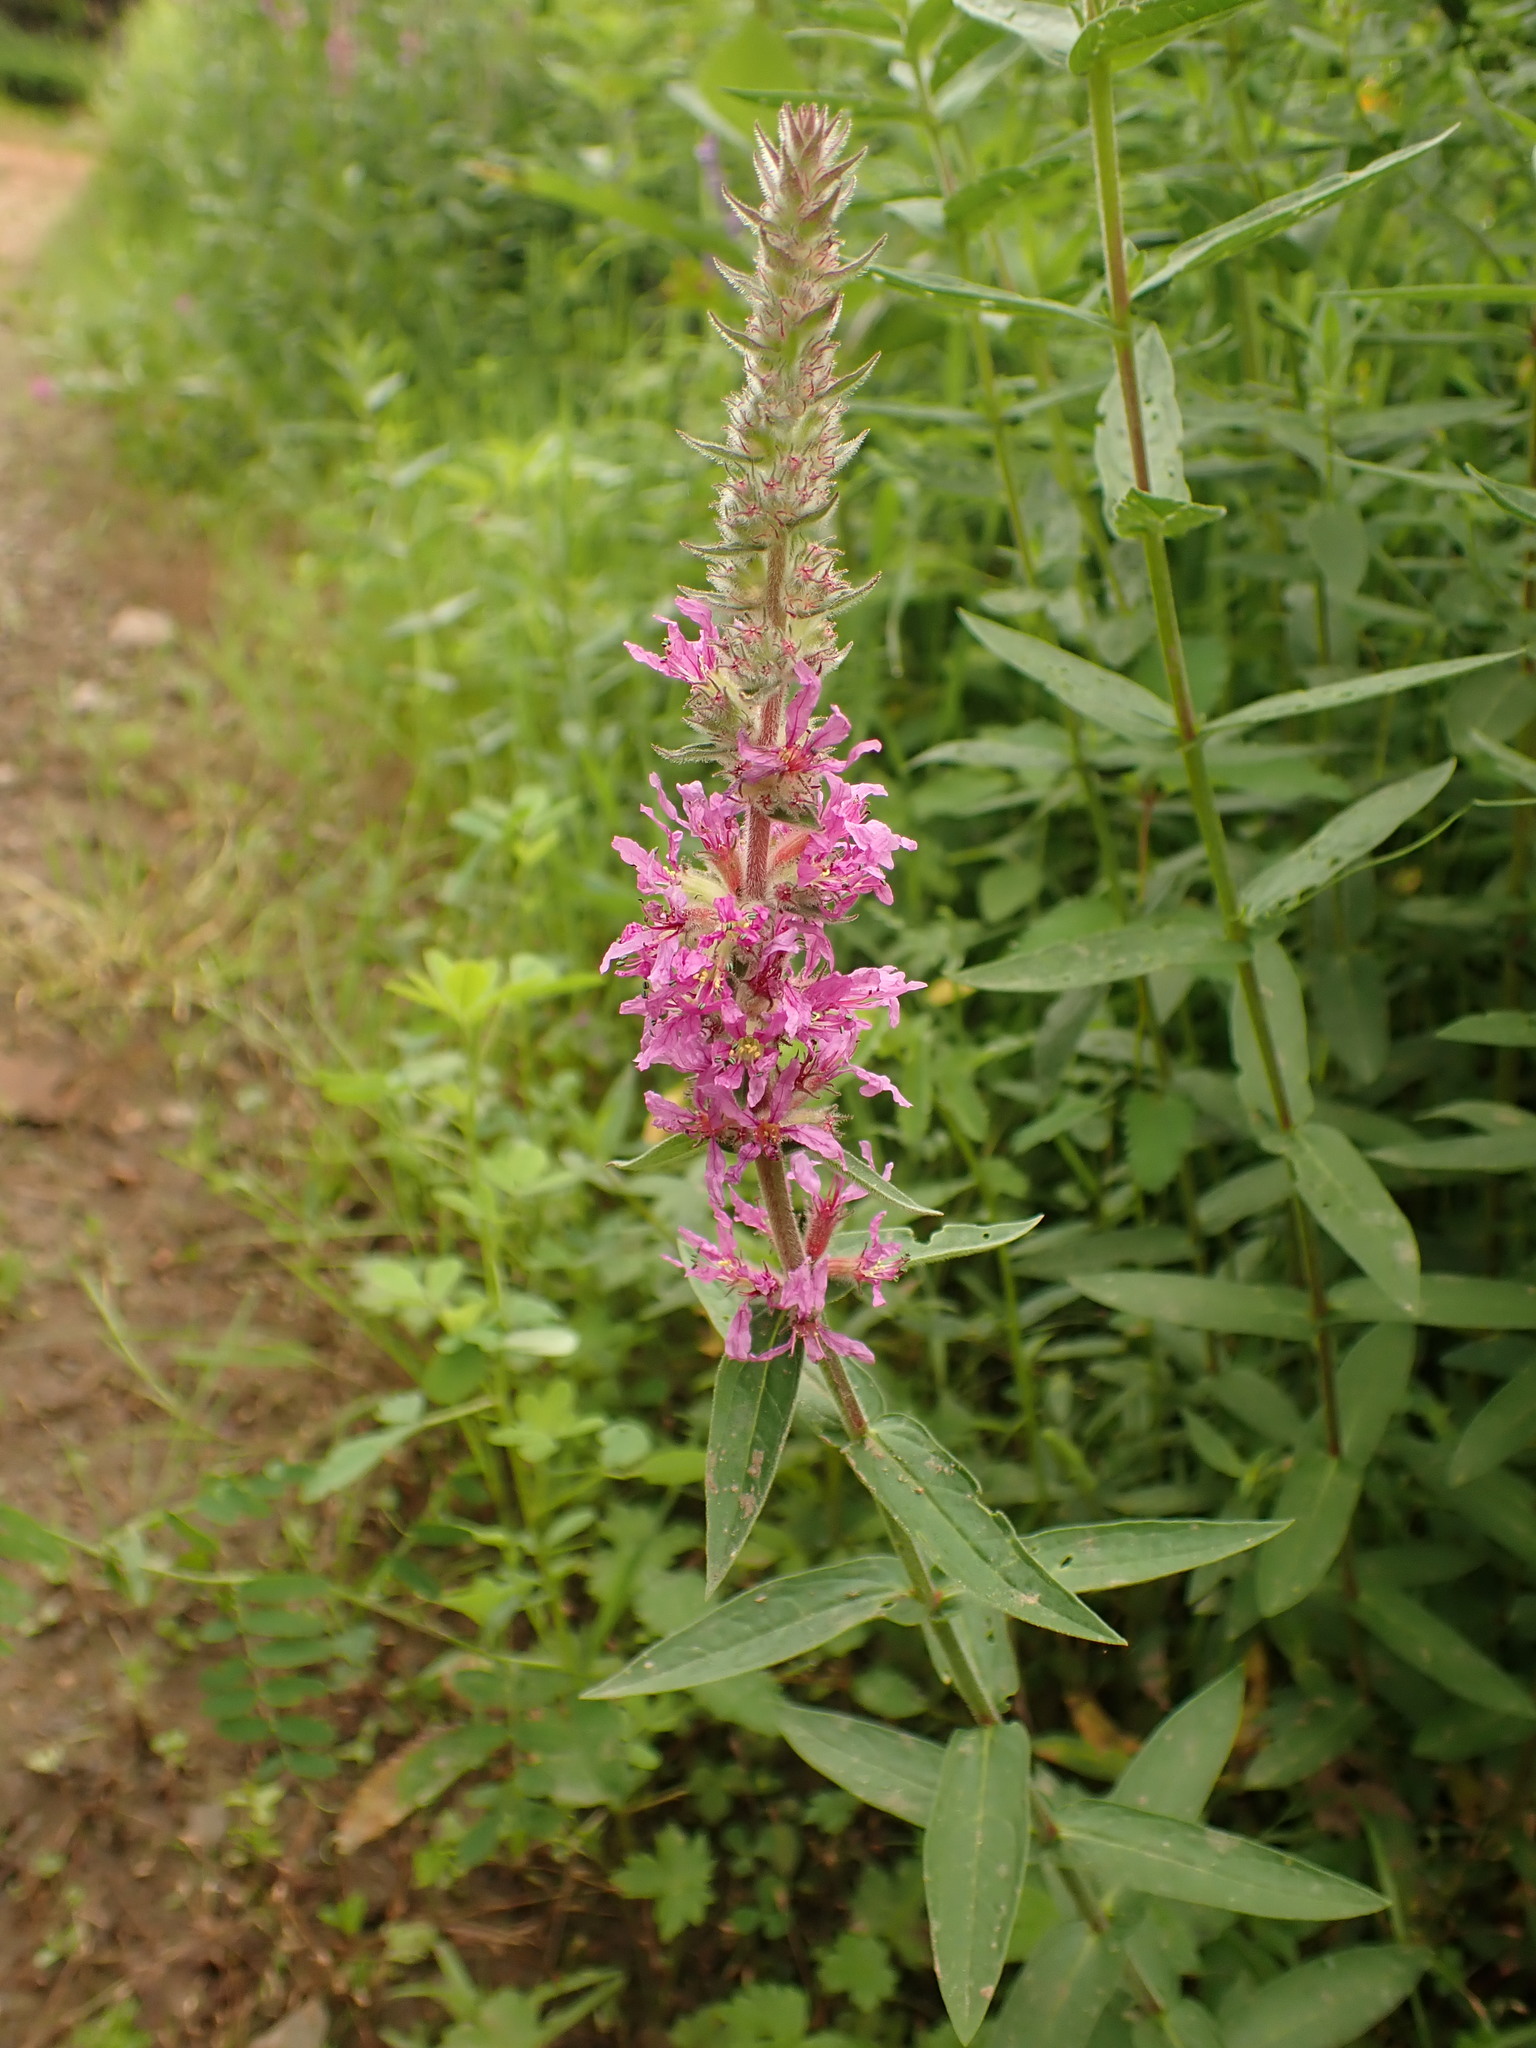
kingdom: Plantae
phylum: Tracheophyta
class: Magnoliopsida
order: Myrtales
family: Lythraceae
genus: Lythrum
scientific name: Lythrum salicaria
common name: Purple loosestrife
